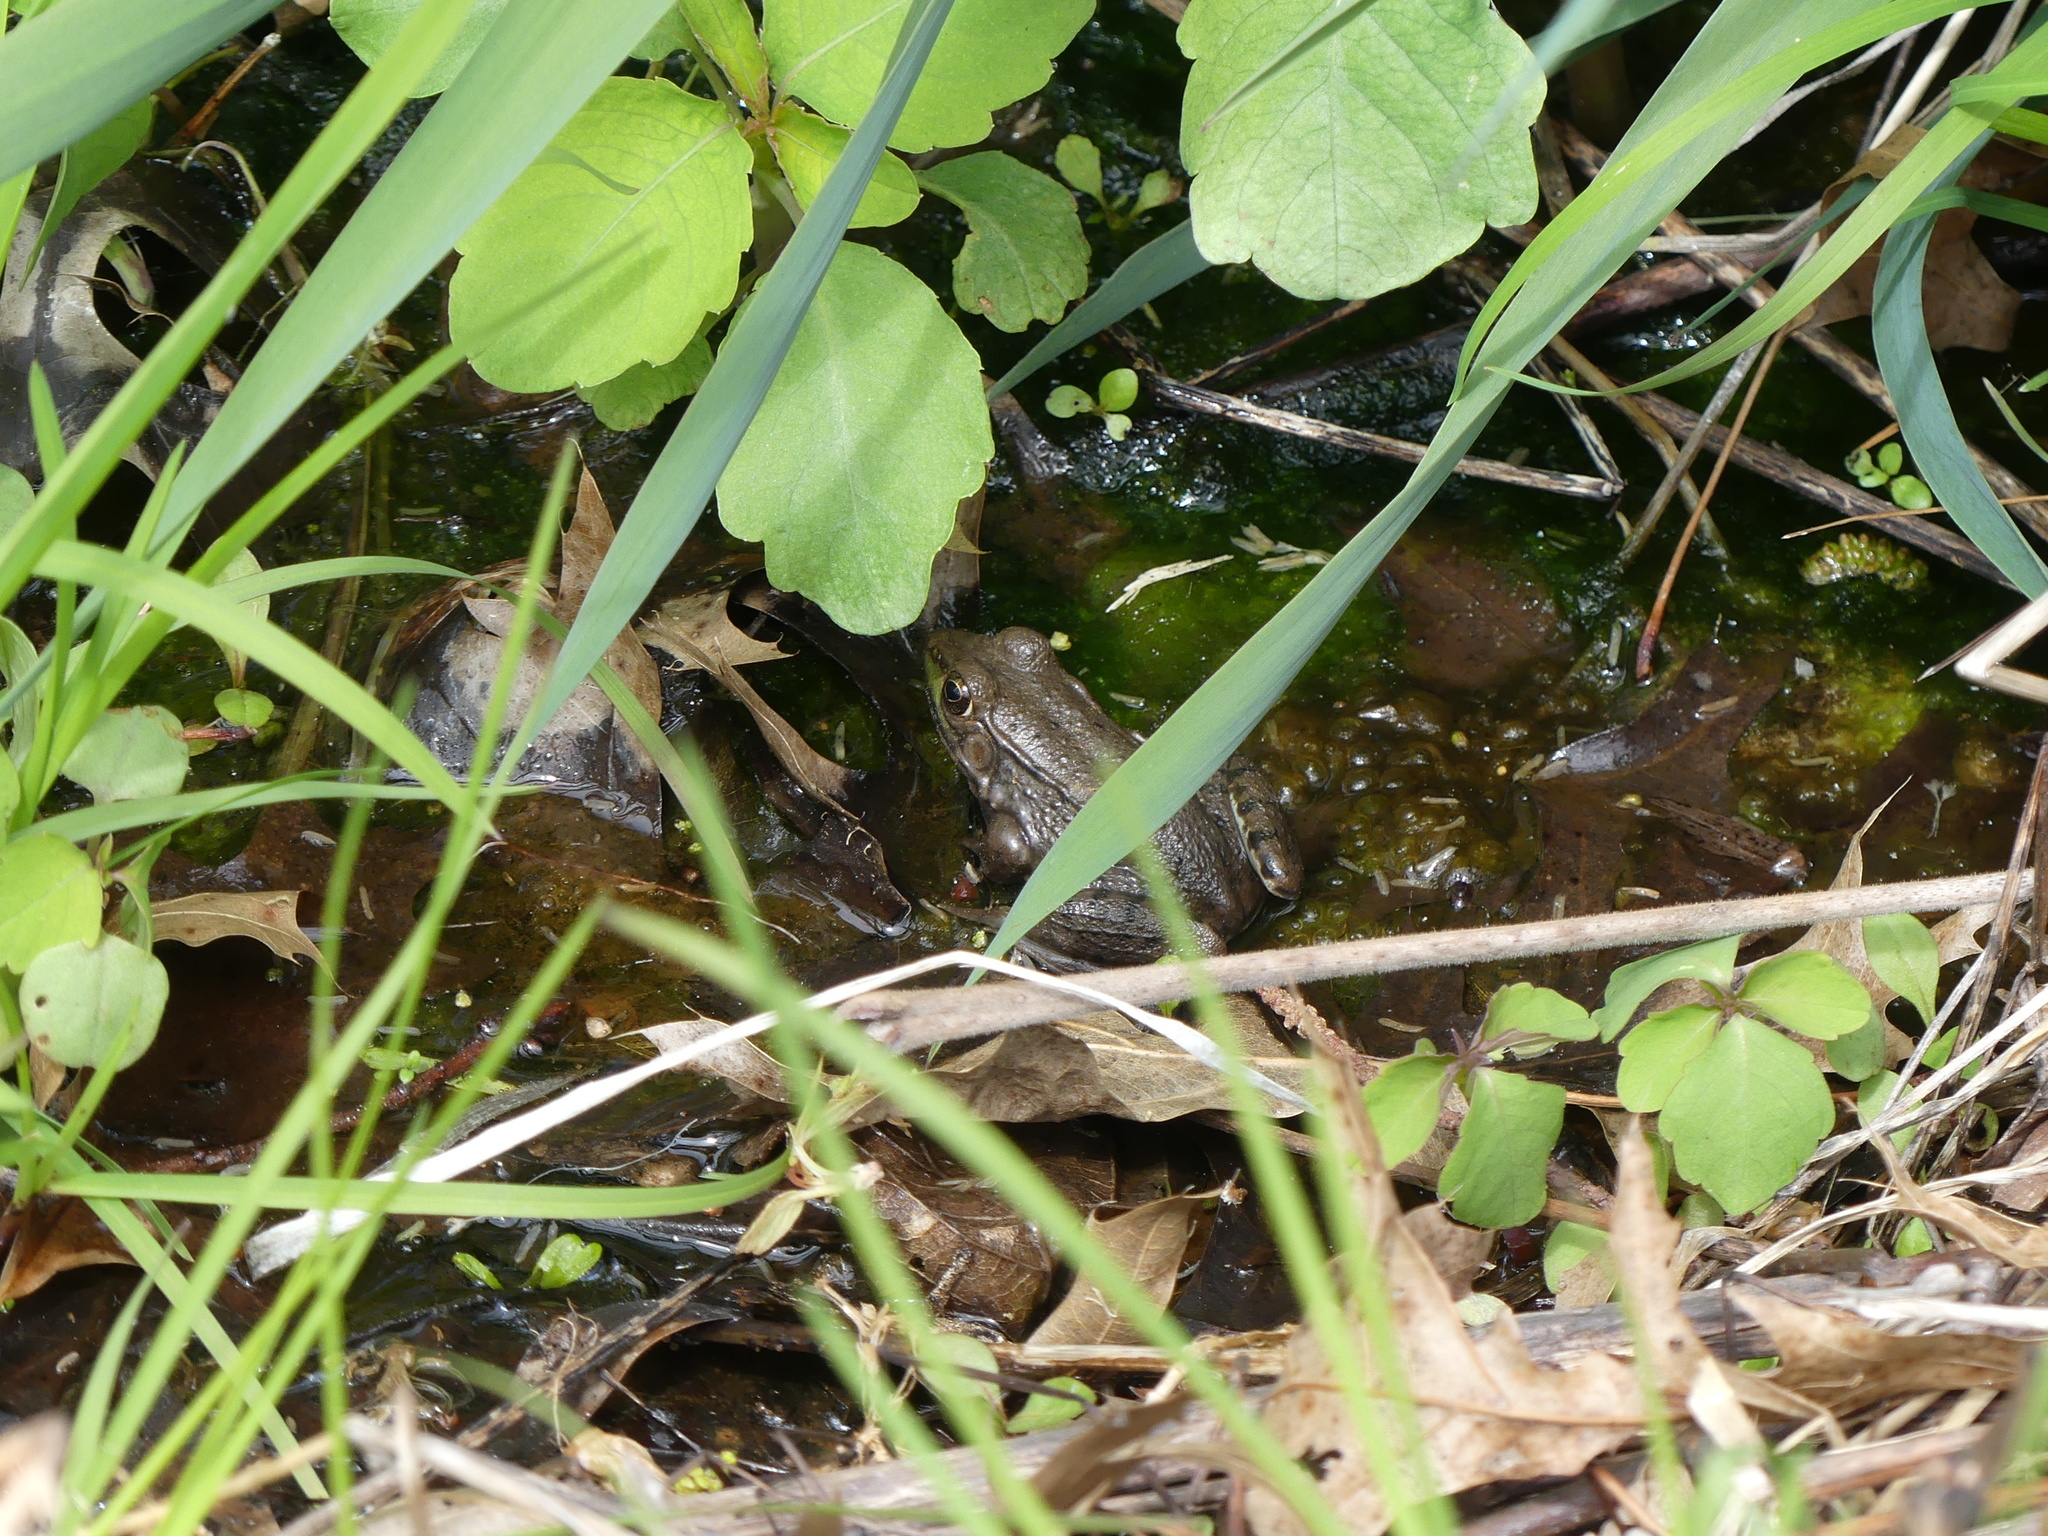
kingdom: Animalia
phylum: Chordata
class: Amphibia
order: Anura
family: Ranidae
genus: Lithobates
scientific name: Lithobates clamitans
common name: Green frog
